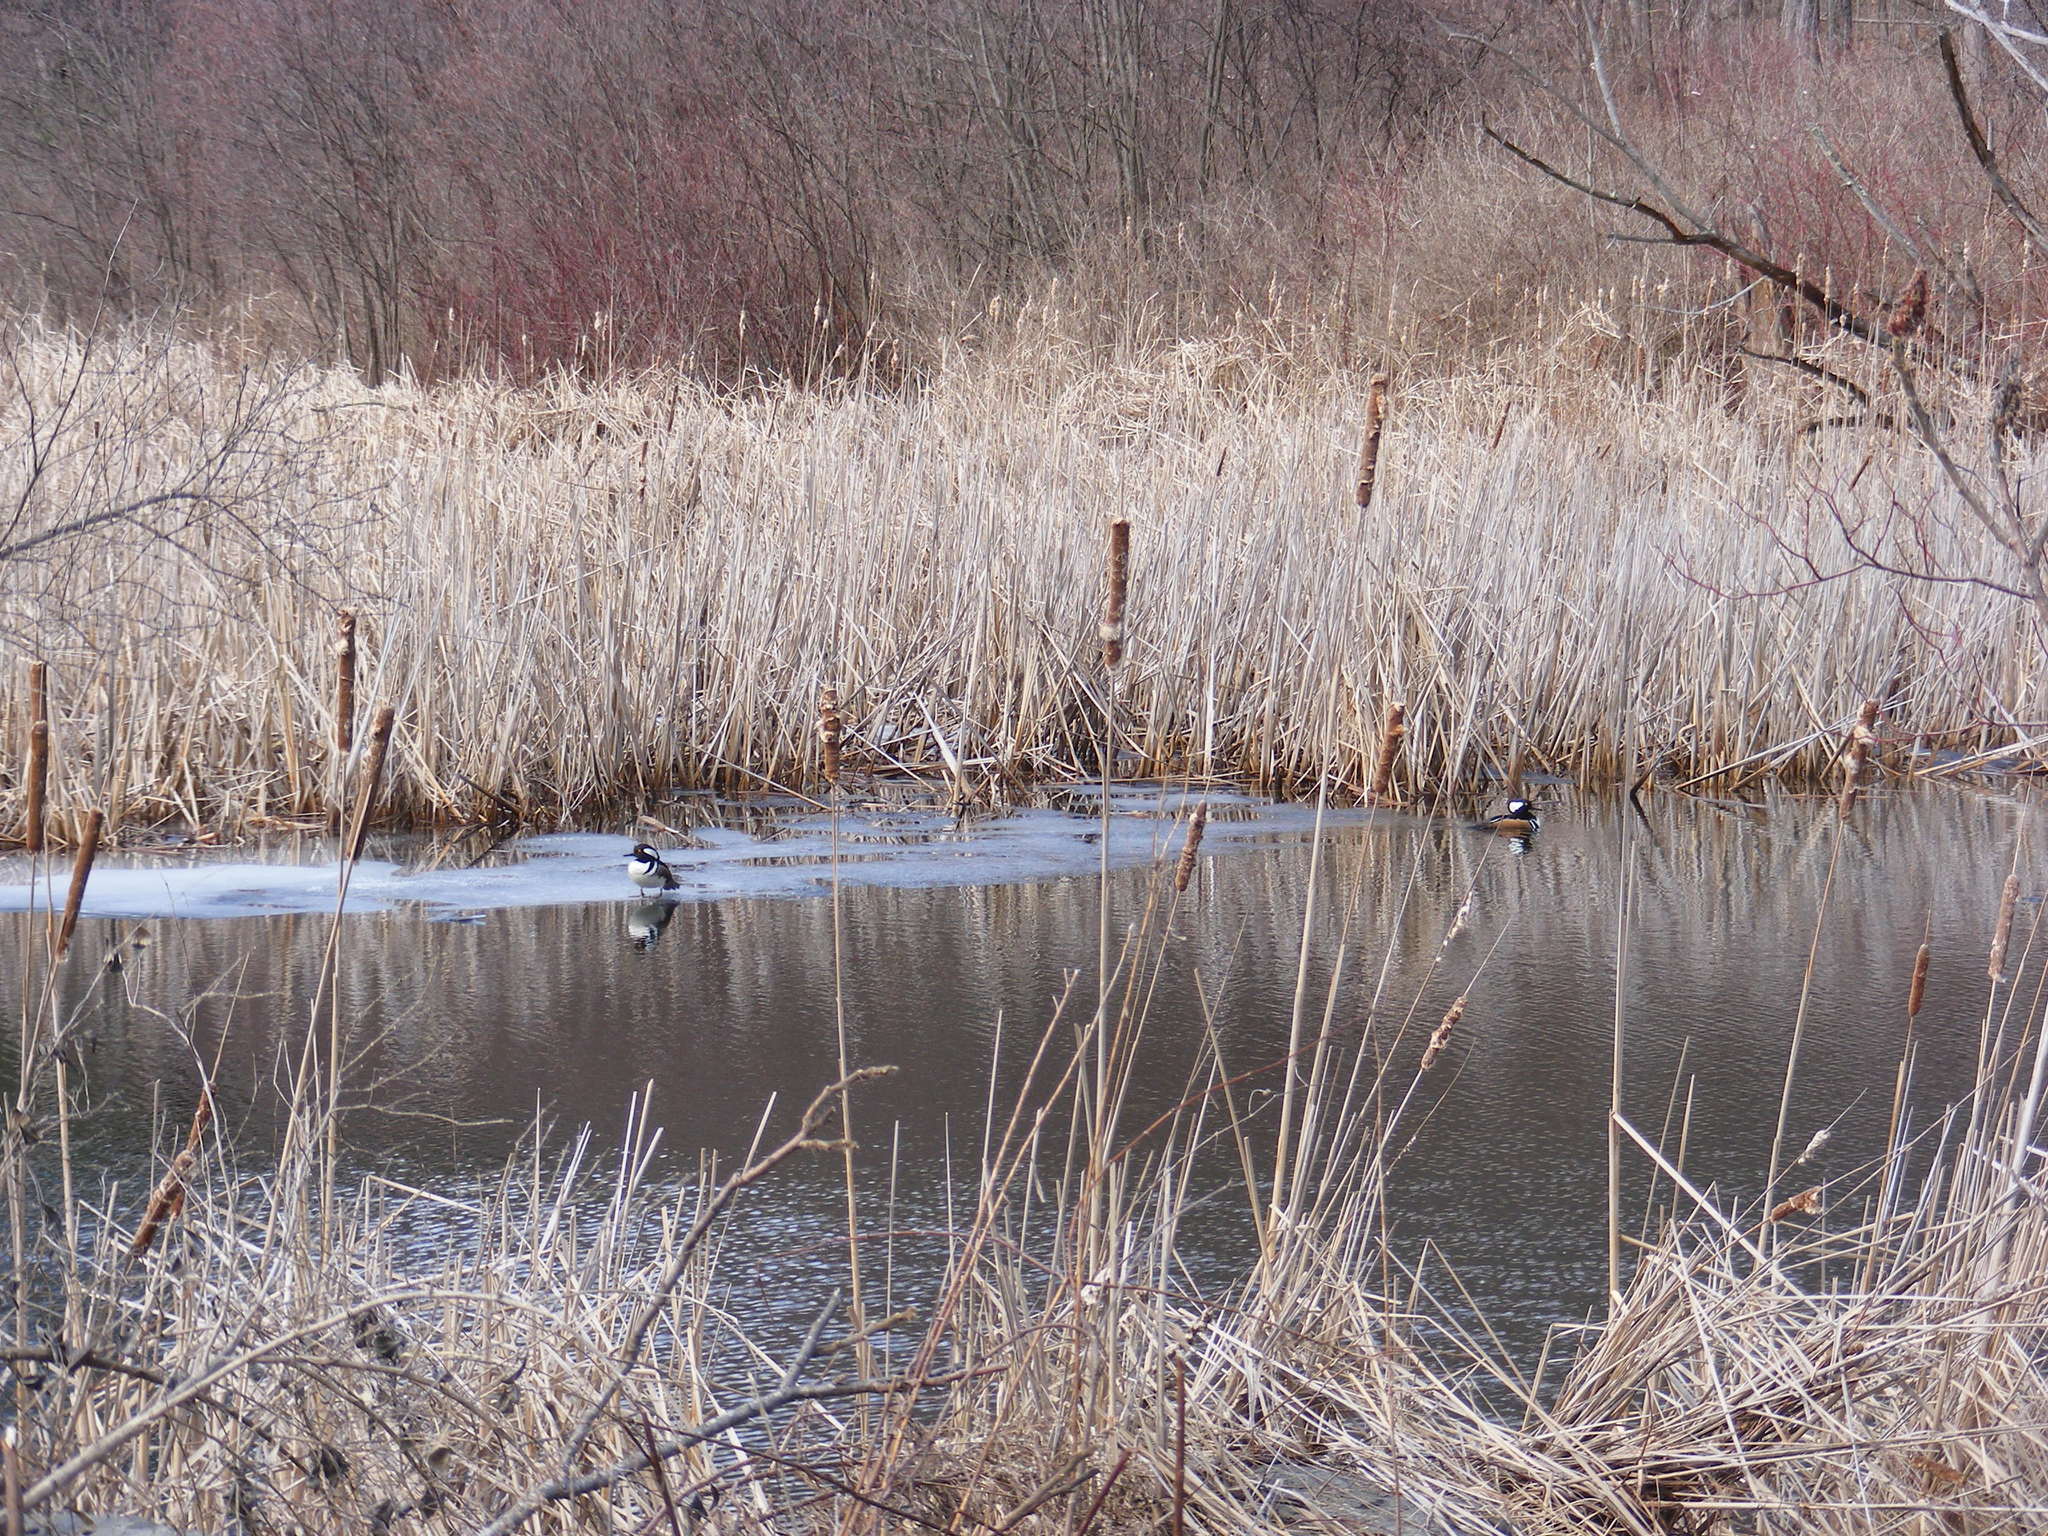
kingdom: Animalia
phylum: Chordata
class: Aves
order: Anseriformes
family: Anatidae
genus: Lophodytes
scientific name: Lophodytes cucullatus
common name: Hooded merganser
